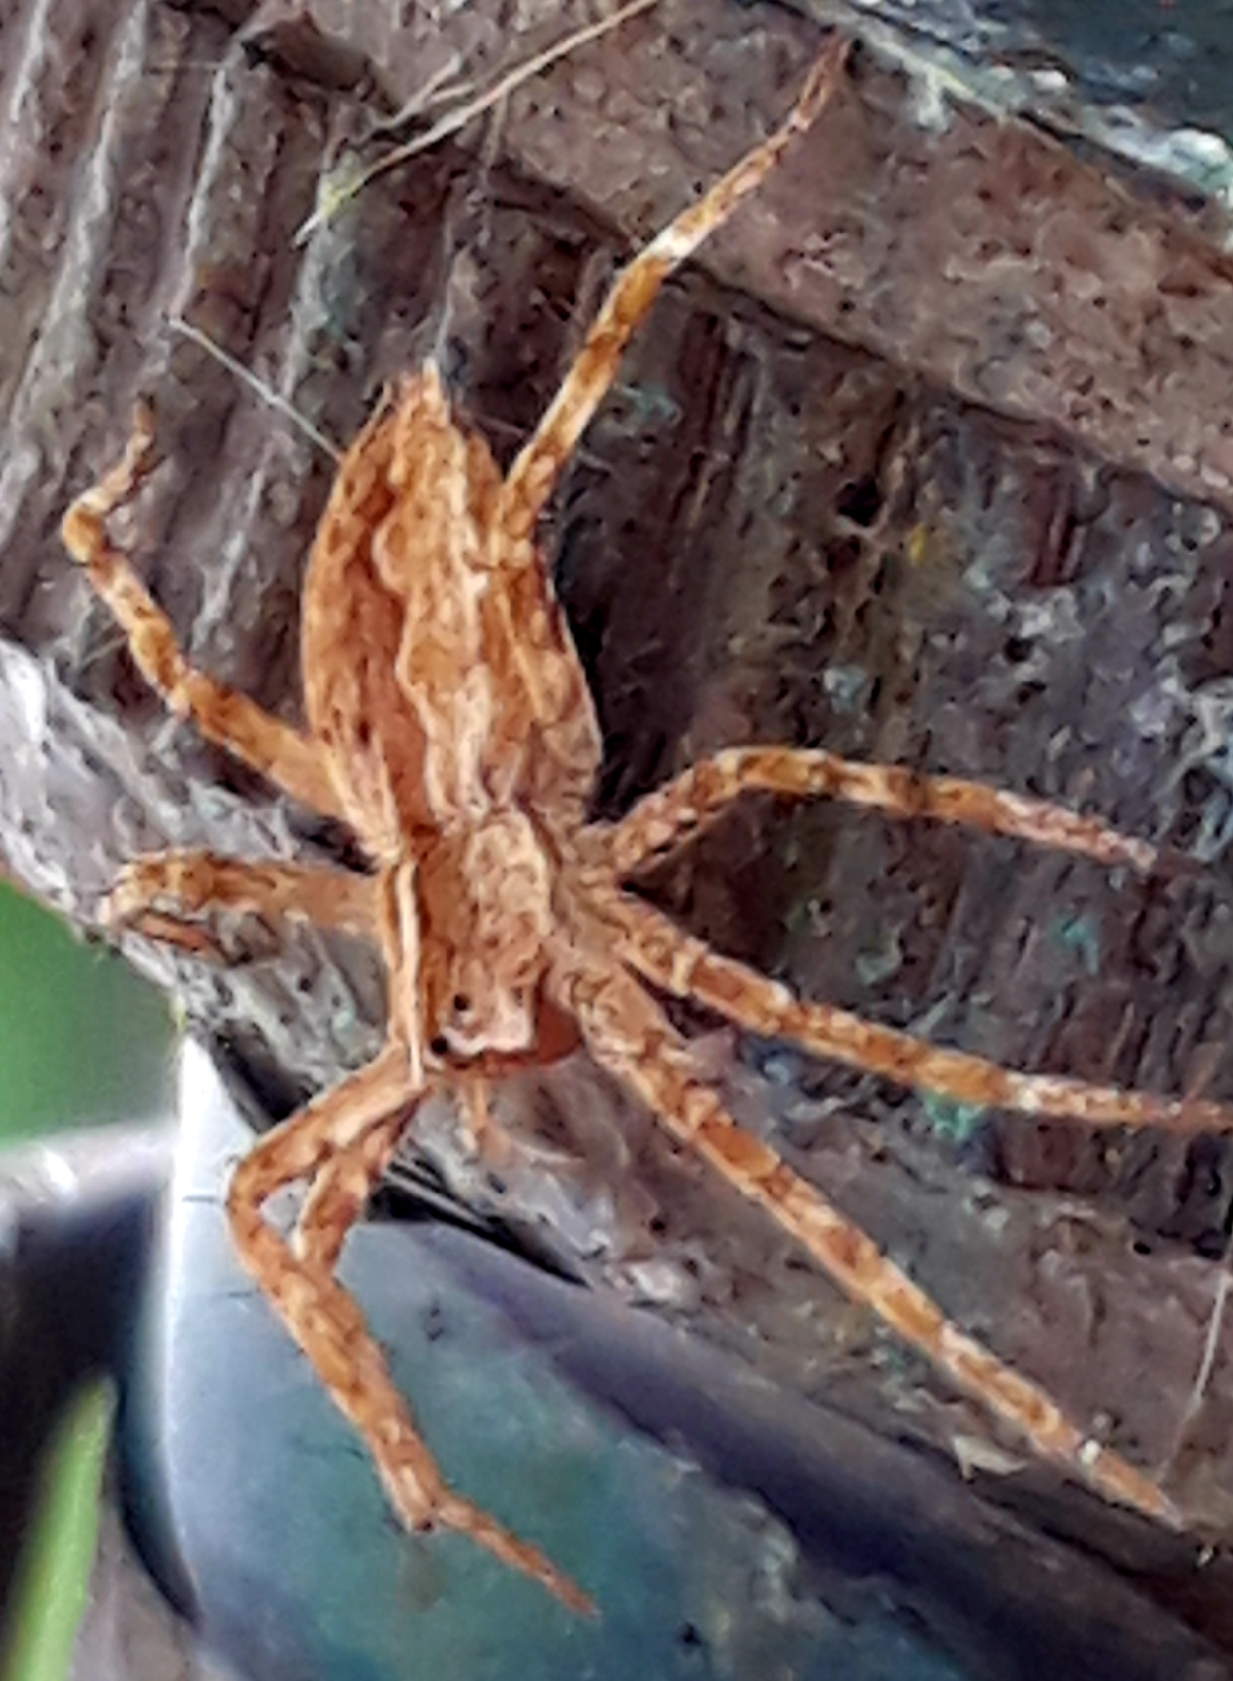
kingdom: Animalia
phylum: Arthropoda
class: Arachnida
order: Araneae
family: Pisauridae
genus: Pisaura
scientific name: Pisaura mirabilis
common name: Tent spider
